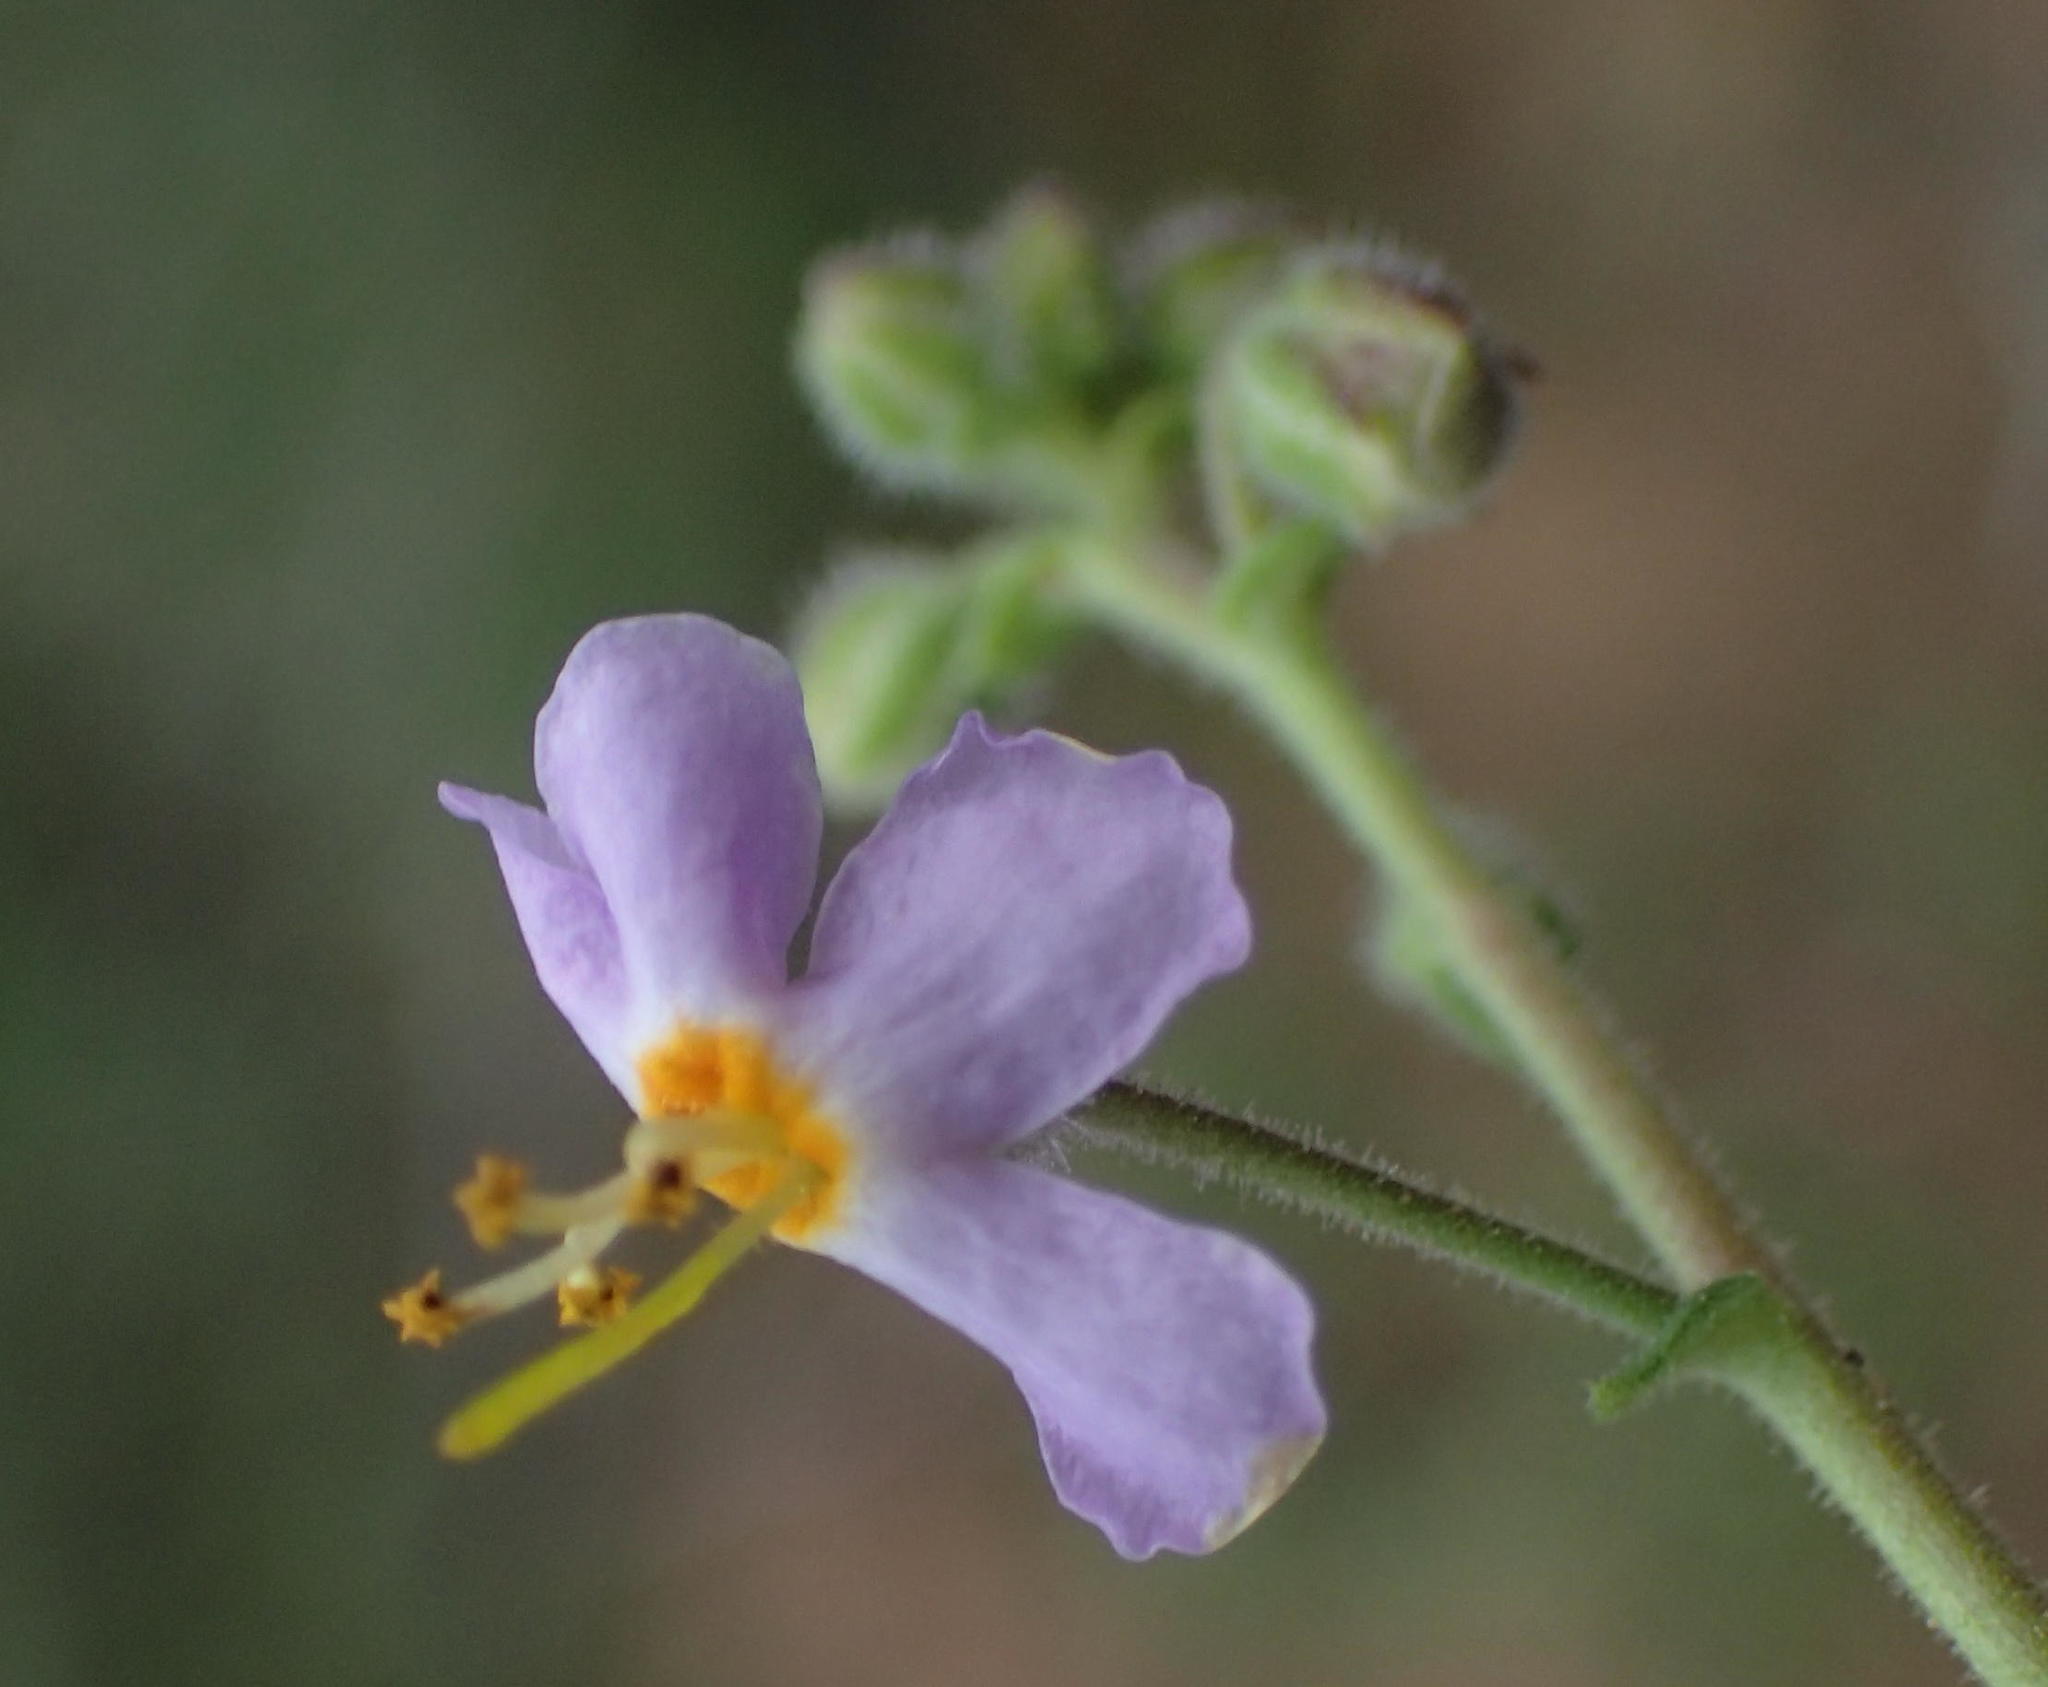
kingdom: Plantae
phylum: Tracheophyta
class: Magnoliopsida
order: Lamiales
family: Scrophulariaceae
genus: Chaenostoma
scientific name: Chaenostoma caeruleum
